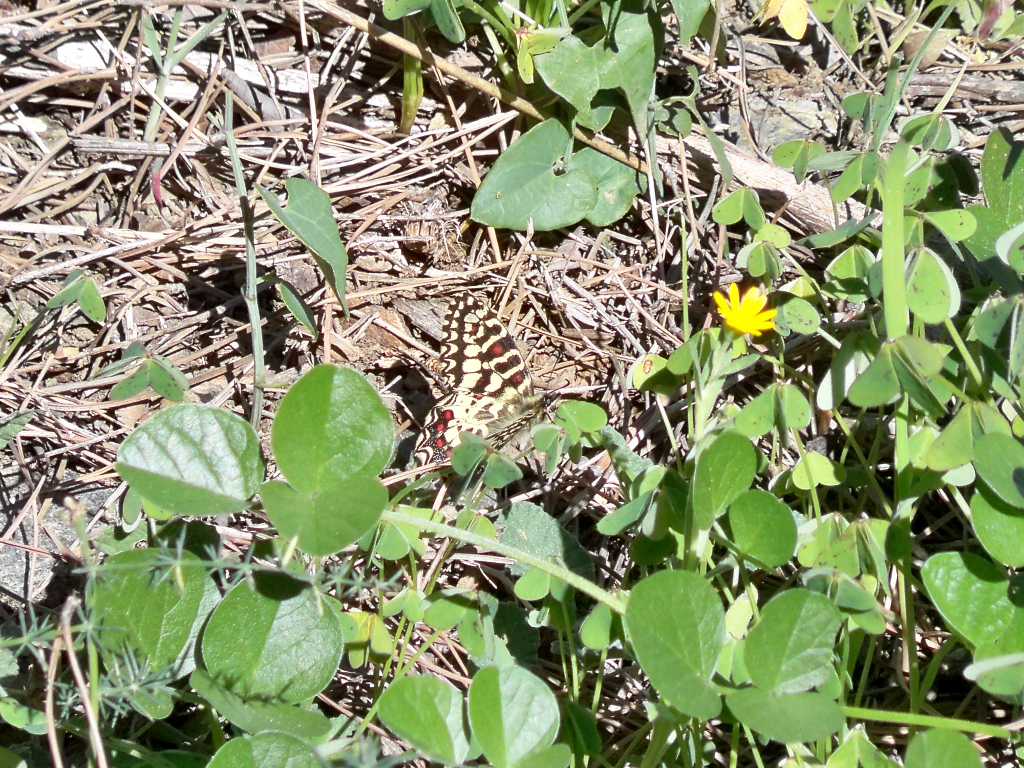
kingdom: Animalia
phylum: Arthropoda
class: Insecta
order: Lepidoptera
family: Papilionidae
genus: Zerynthia
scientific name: Zerynthia rumina
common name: Spanish festoon
